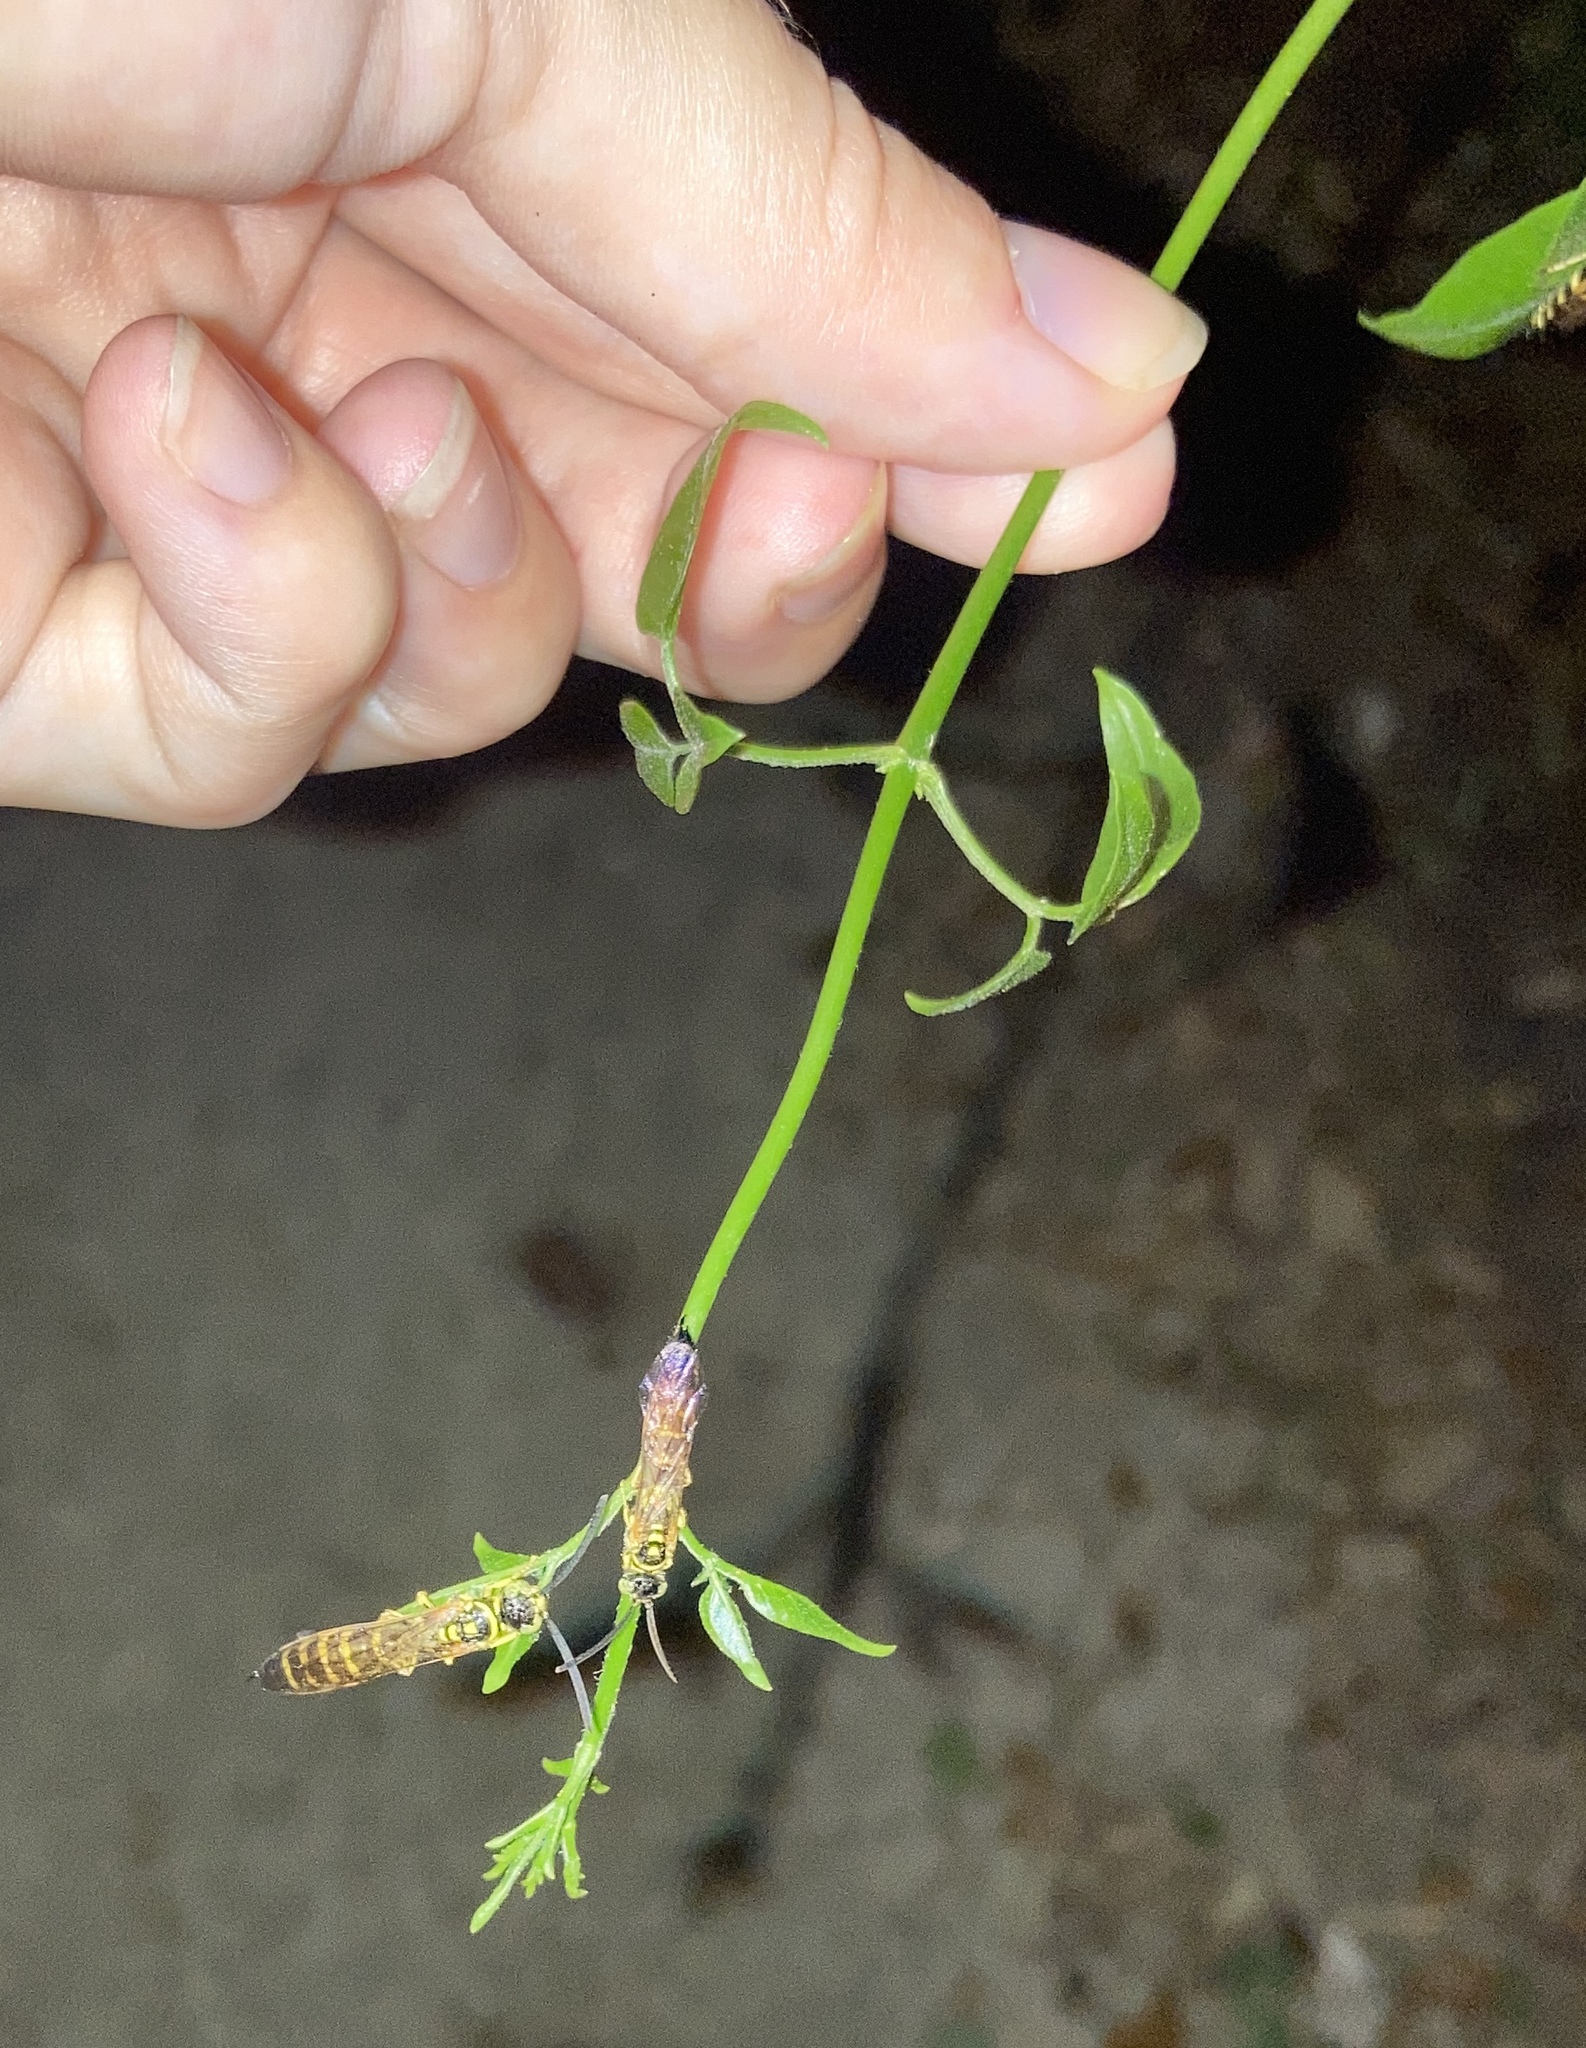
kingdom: Animalia
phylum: Arthropoda
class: Insecta
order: Hymenoptera
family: Tiphiidae
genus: Myzinum
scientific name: Myzinum
